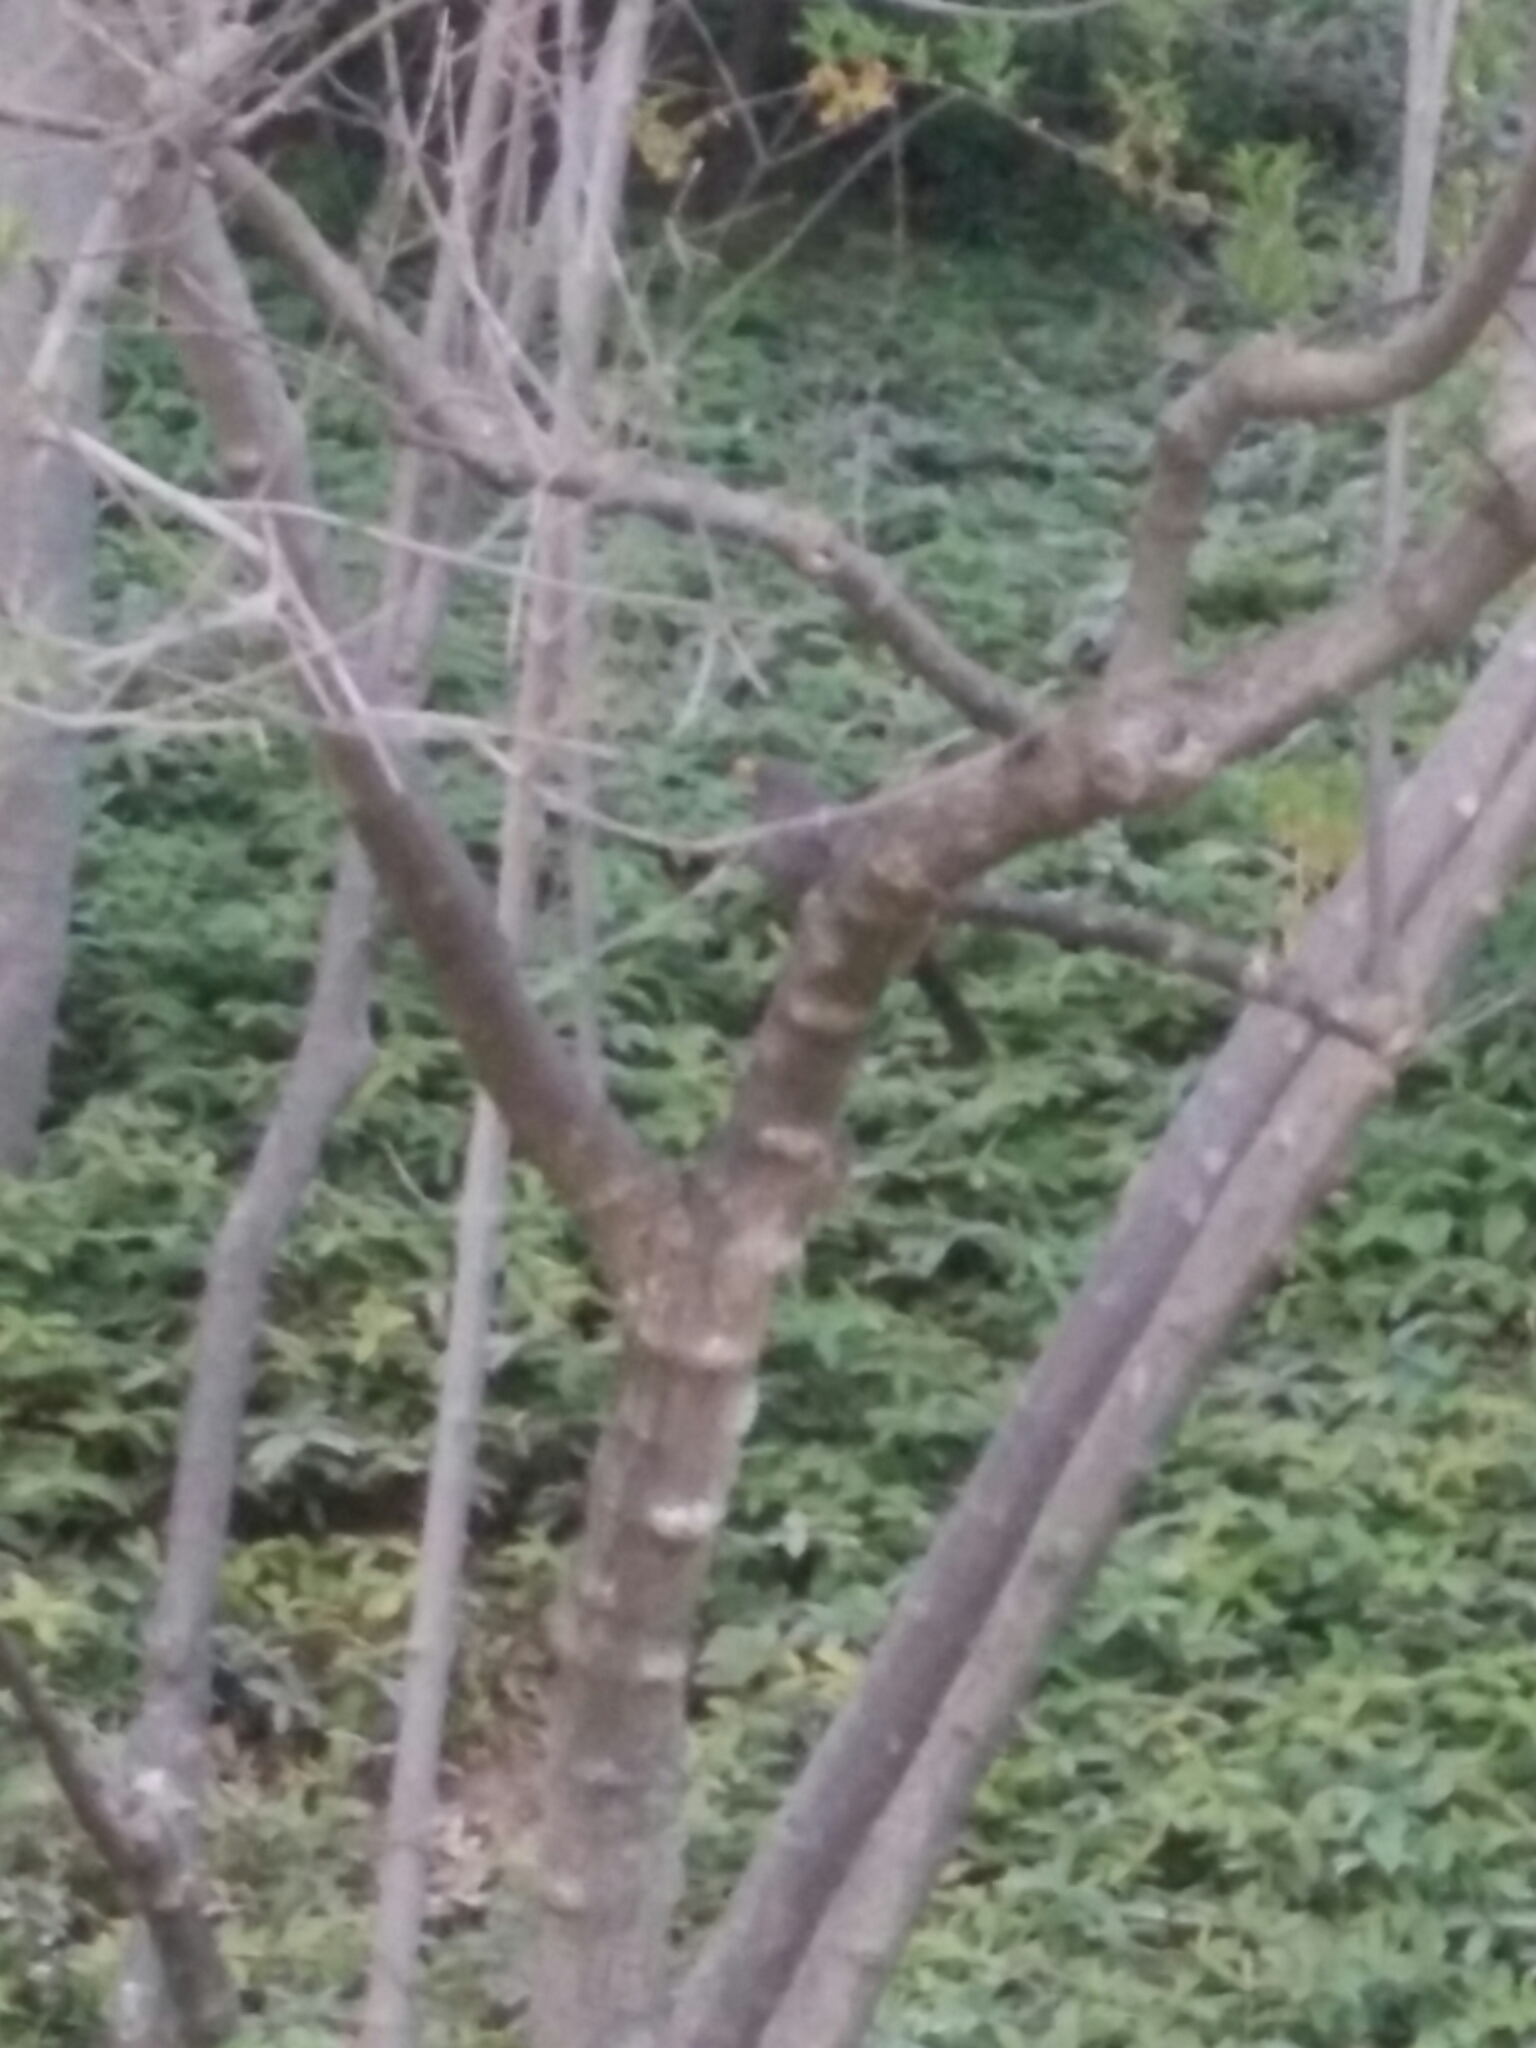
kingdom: Animalia
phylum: Chordata
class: Aves
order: Passeriformes
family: Turdidae
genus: Turdus
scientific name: Turdus merula
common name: Common blackbird
